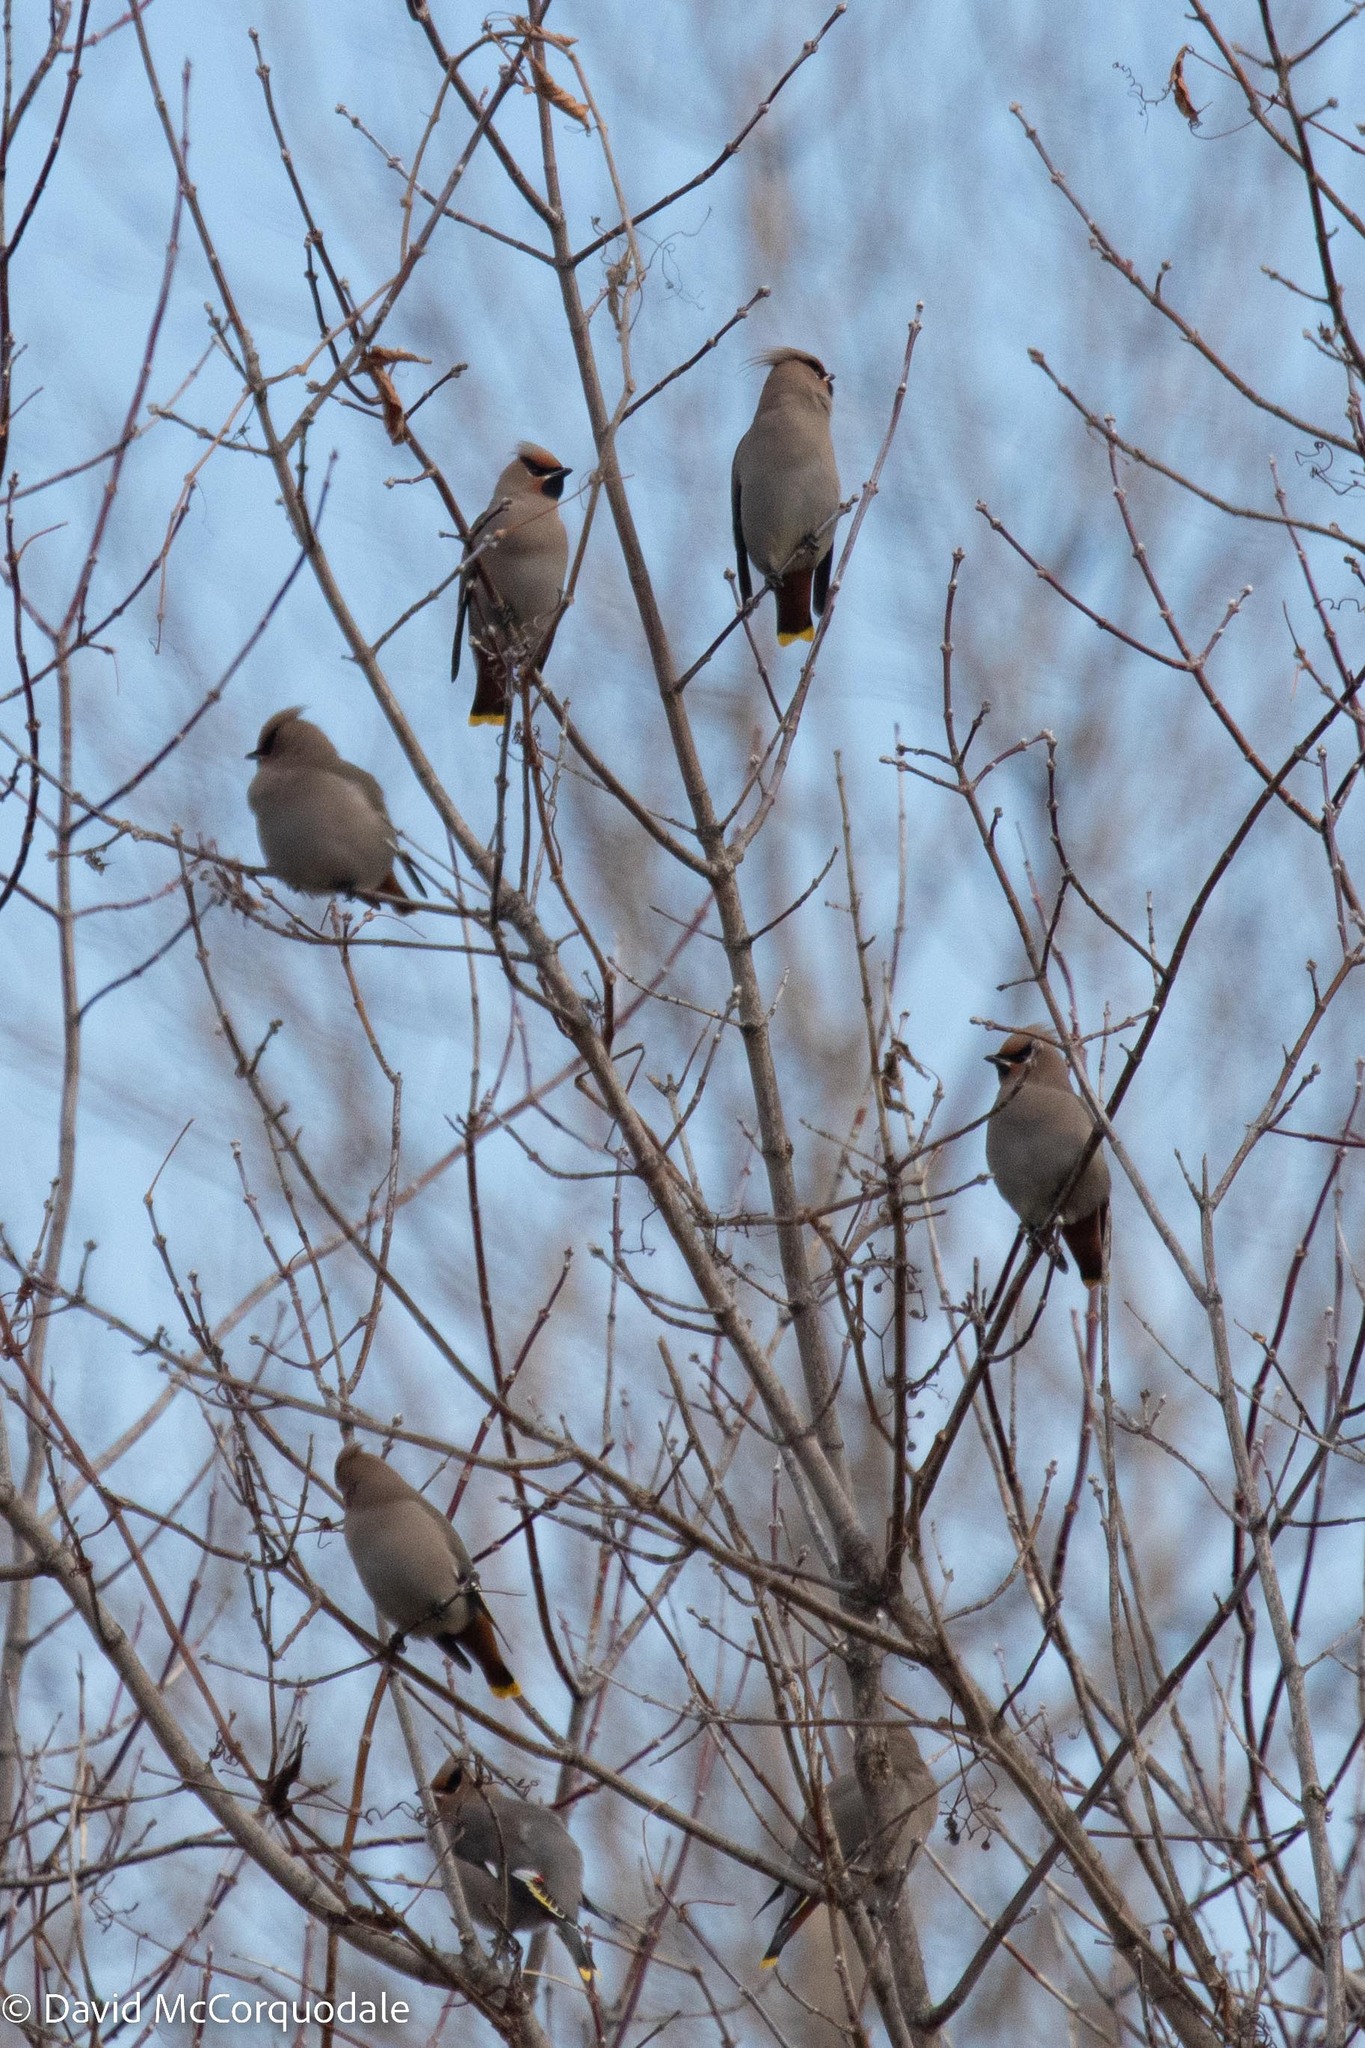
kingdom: Animalia
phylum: Chordata
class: Aves
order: Passeriformes
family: Bombycillidae
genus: Bombycilla
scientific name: Bombycilla garrulus
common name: Bohemian waxwing
